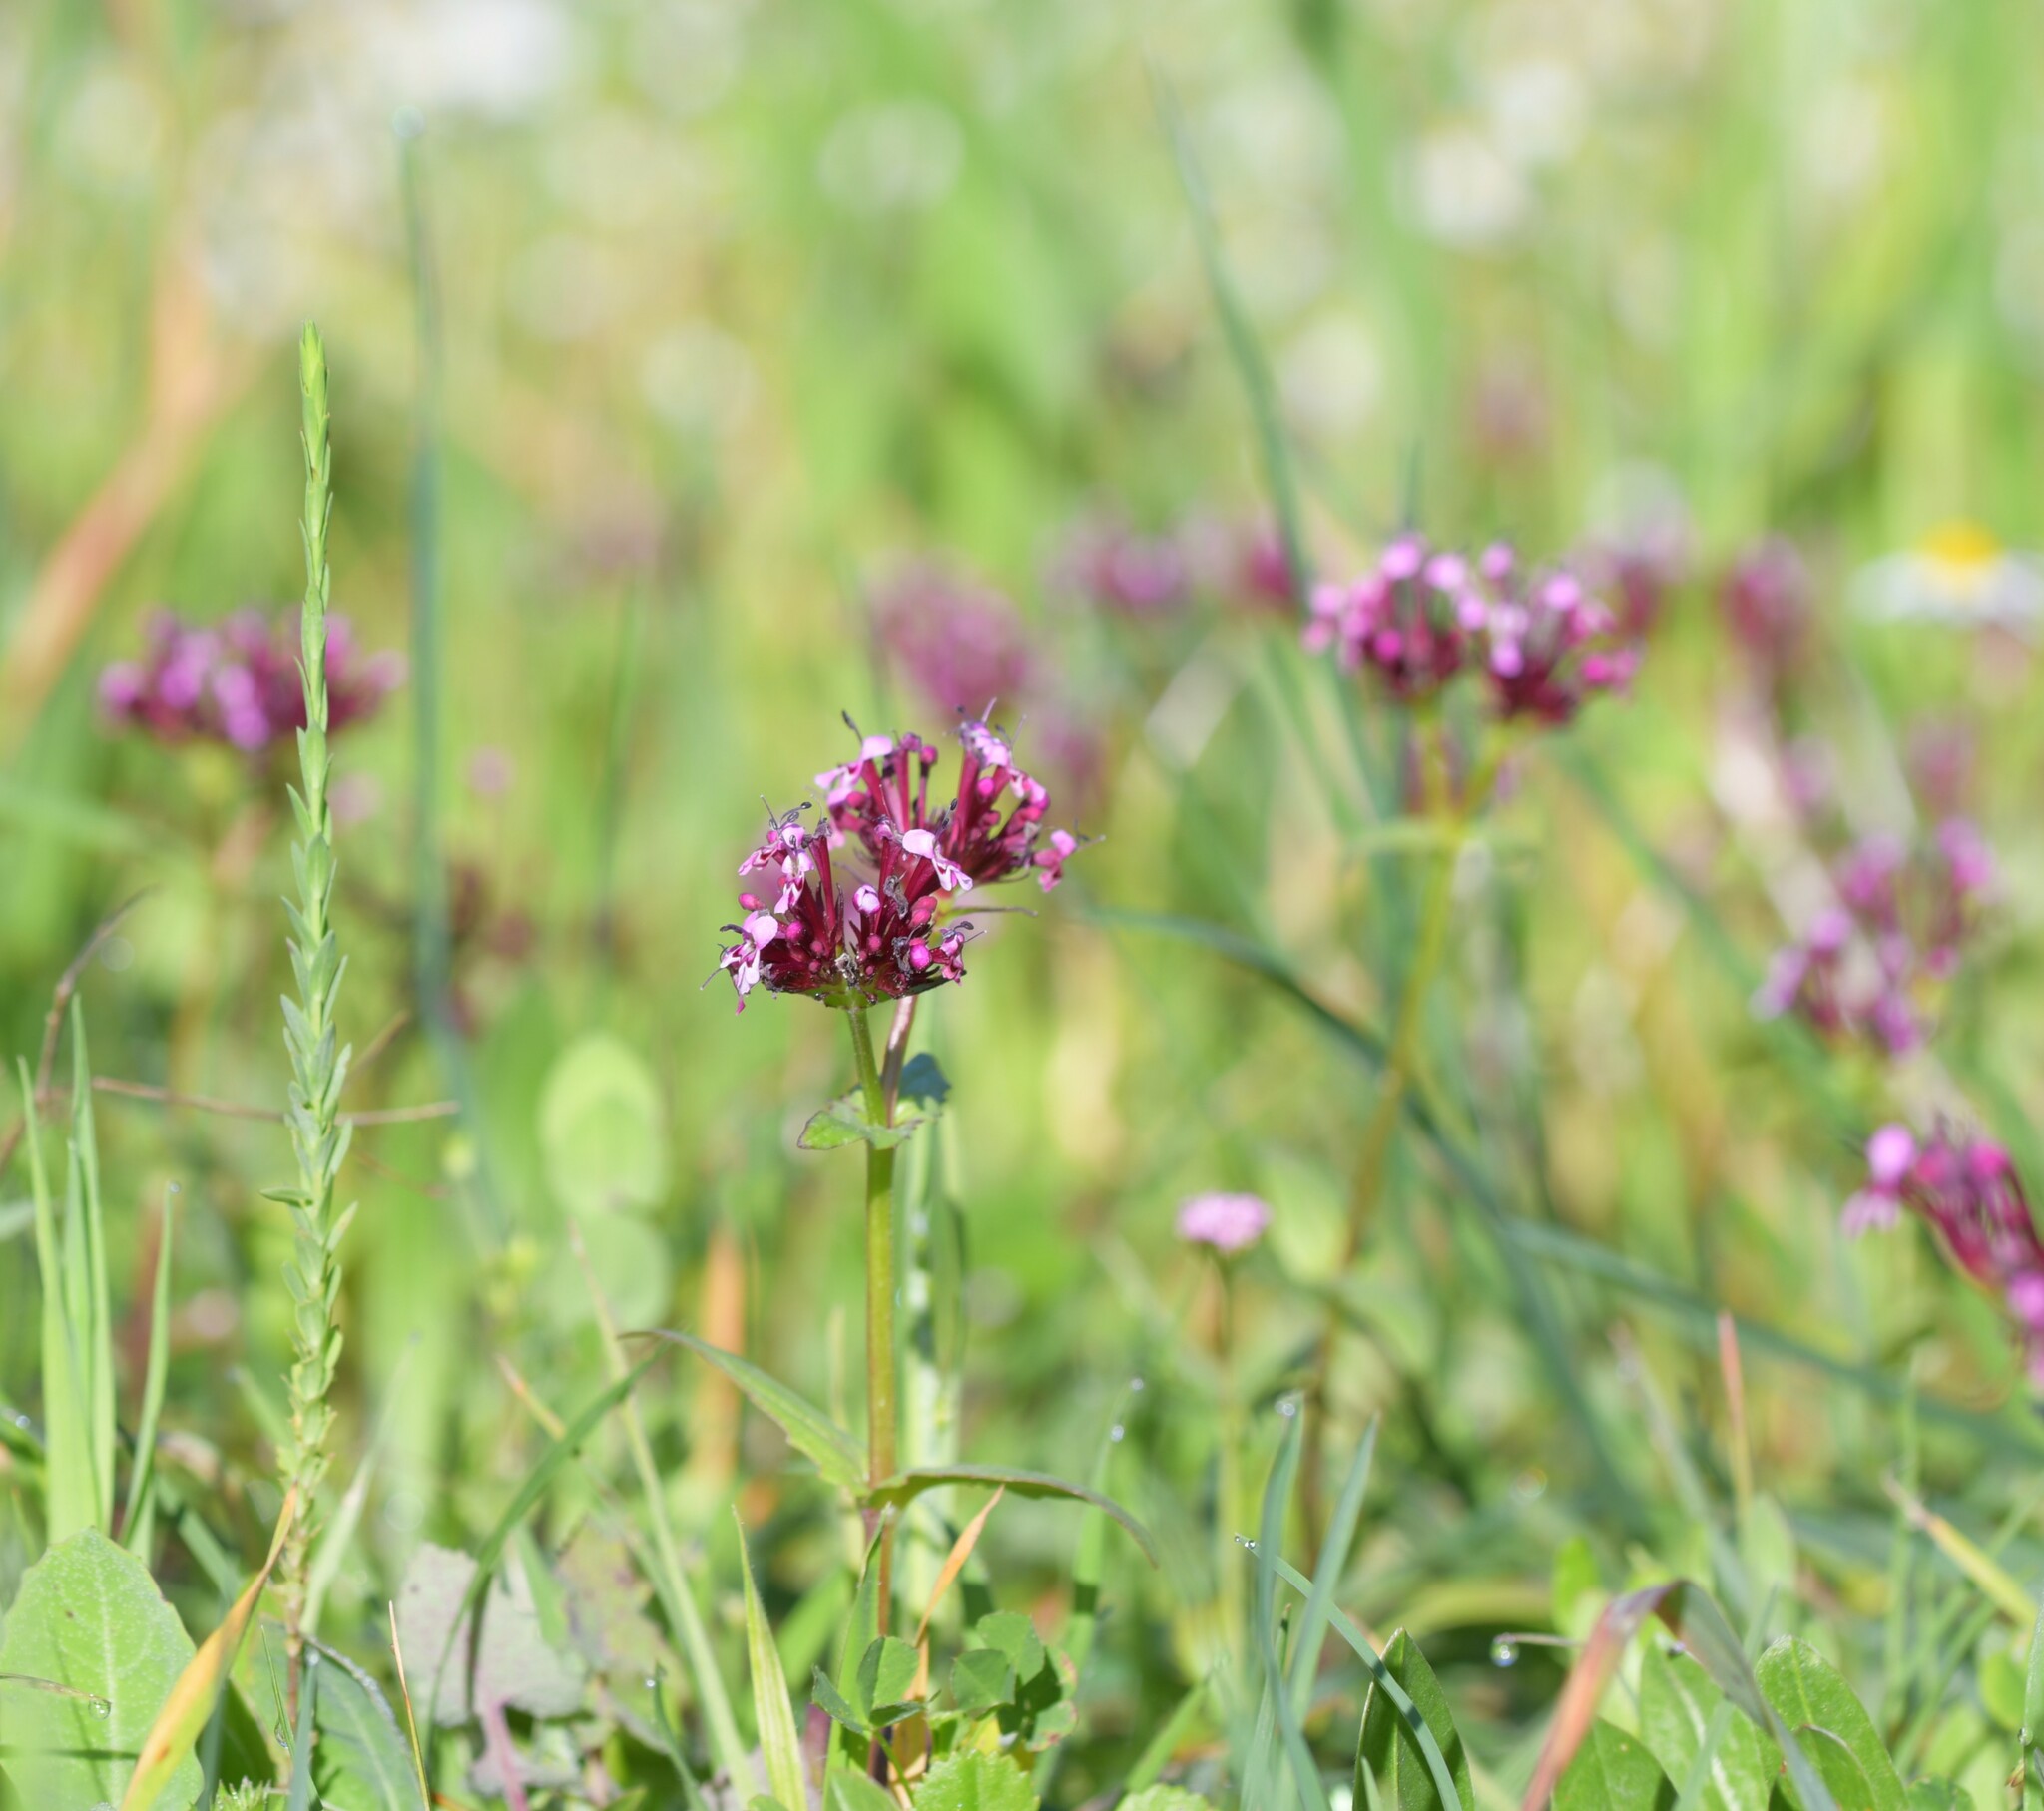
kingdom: Plantae
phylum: Tracheophyta
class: Magnoliopsida
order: Dipsacales
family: Caprifoliaceae
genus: Fedia
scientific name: Fedia cornucopiae
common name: Horn-of-plenty
